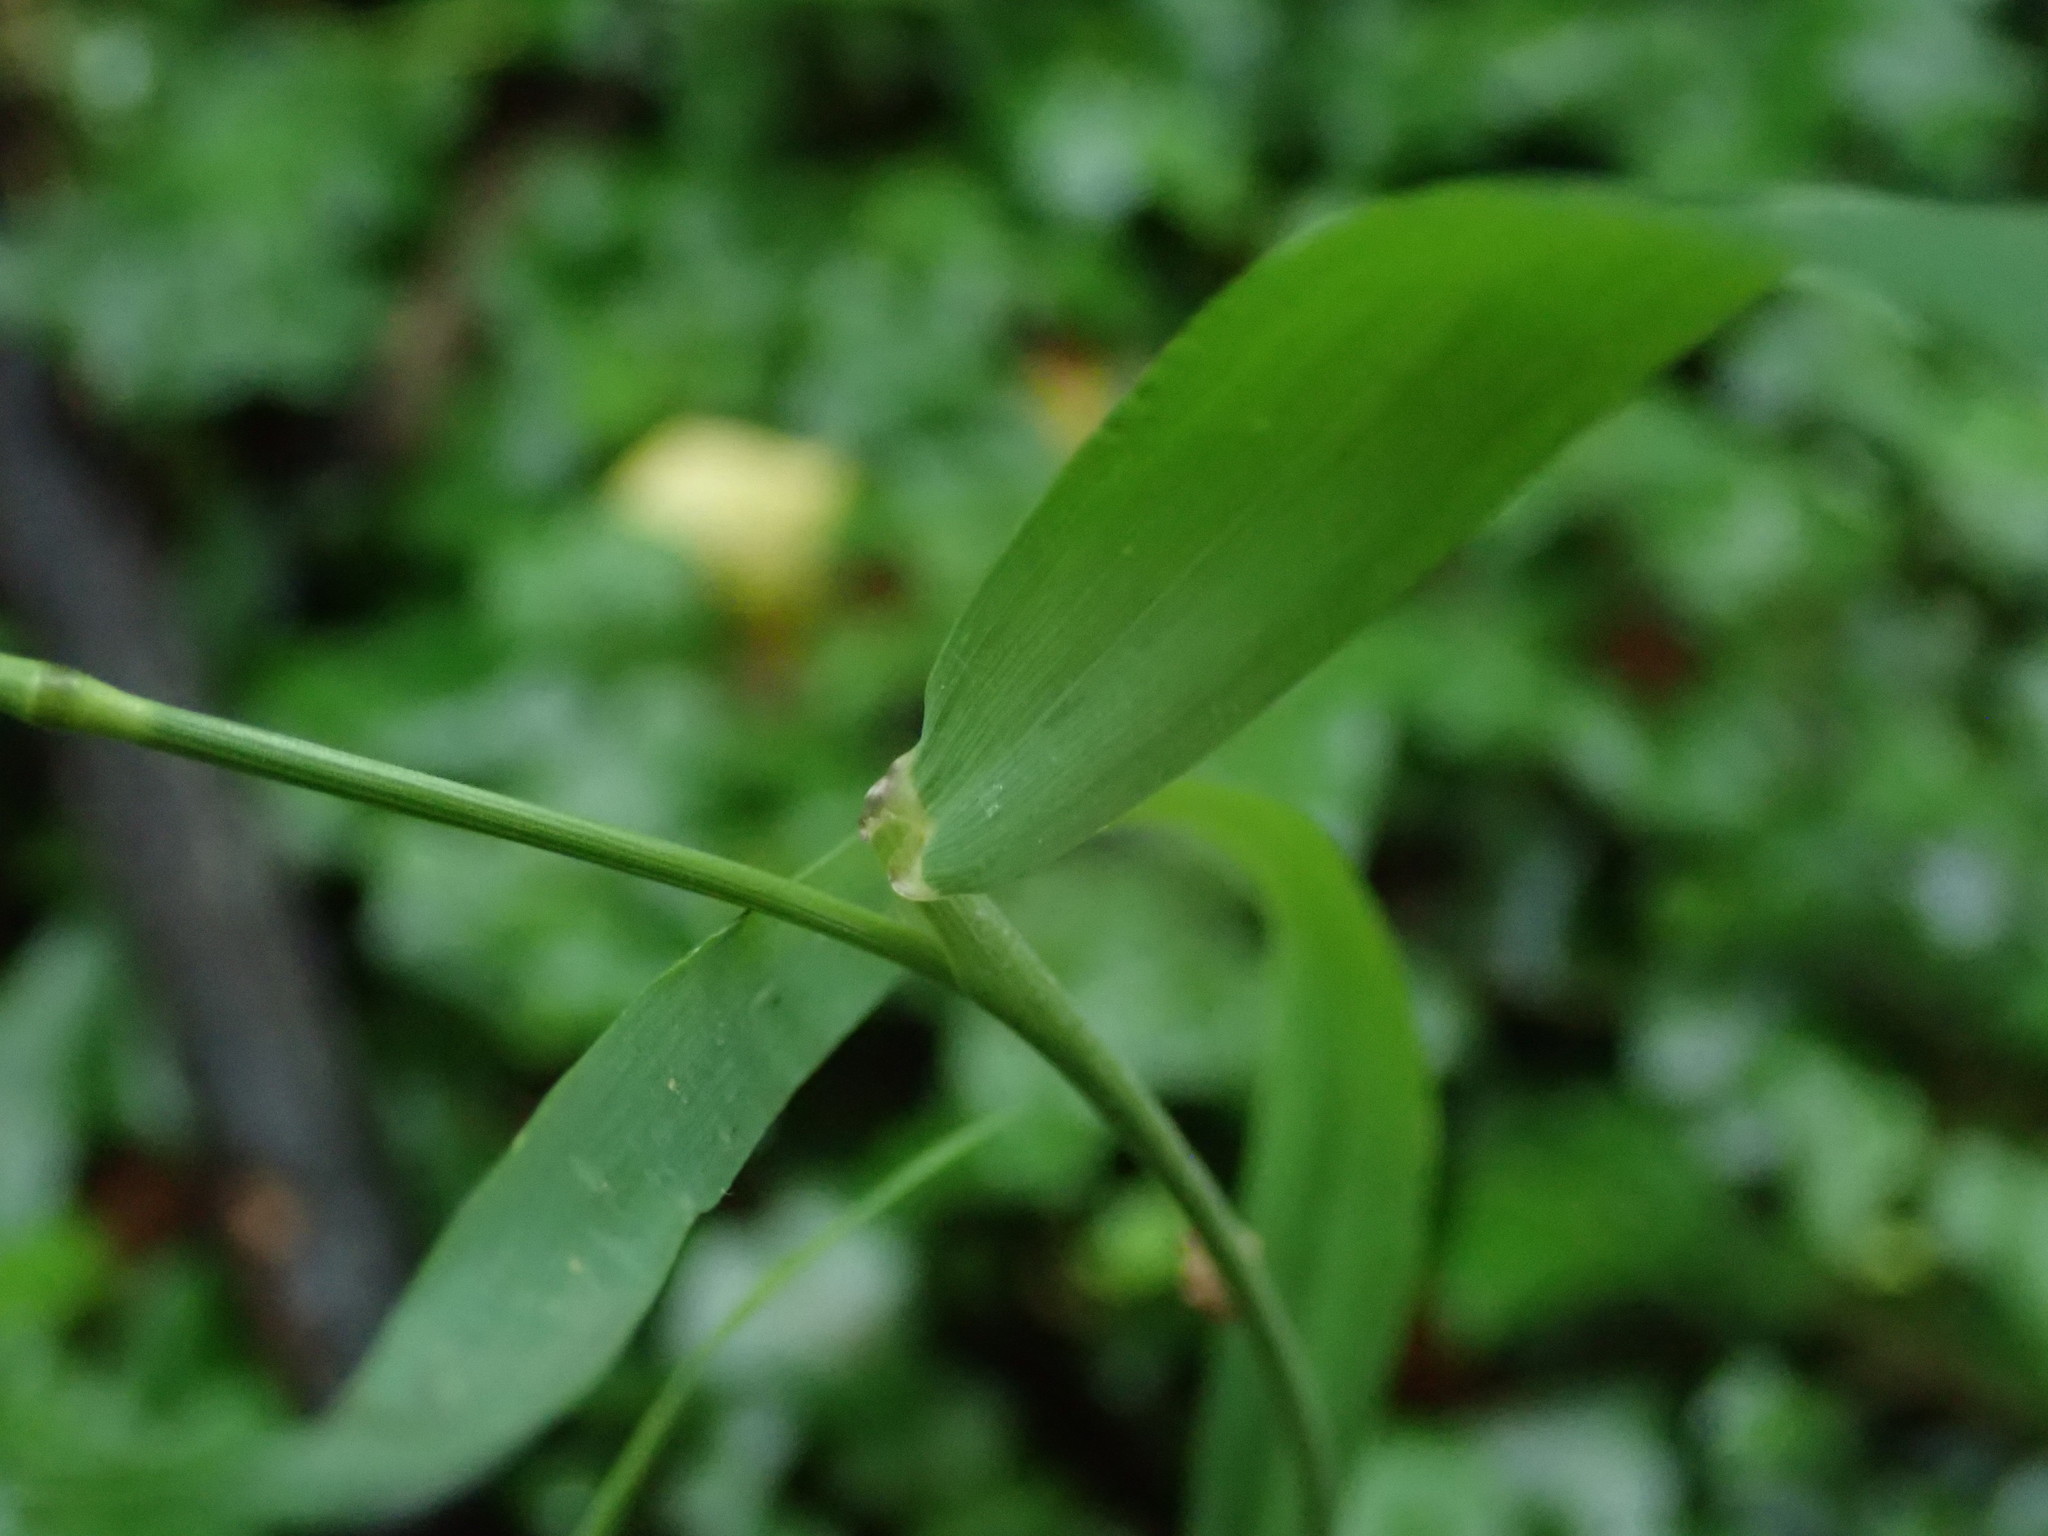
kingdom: Plantae
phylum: Tracheophyta
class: Liliopsida
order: Poales
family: Poaceae
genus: Elymus
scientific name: Elymus repens
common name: Quackgrass
